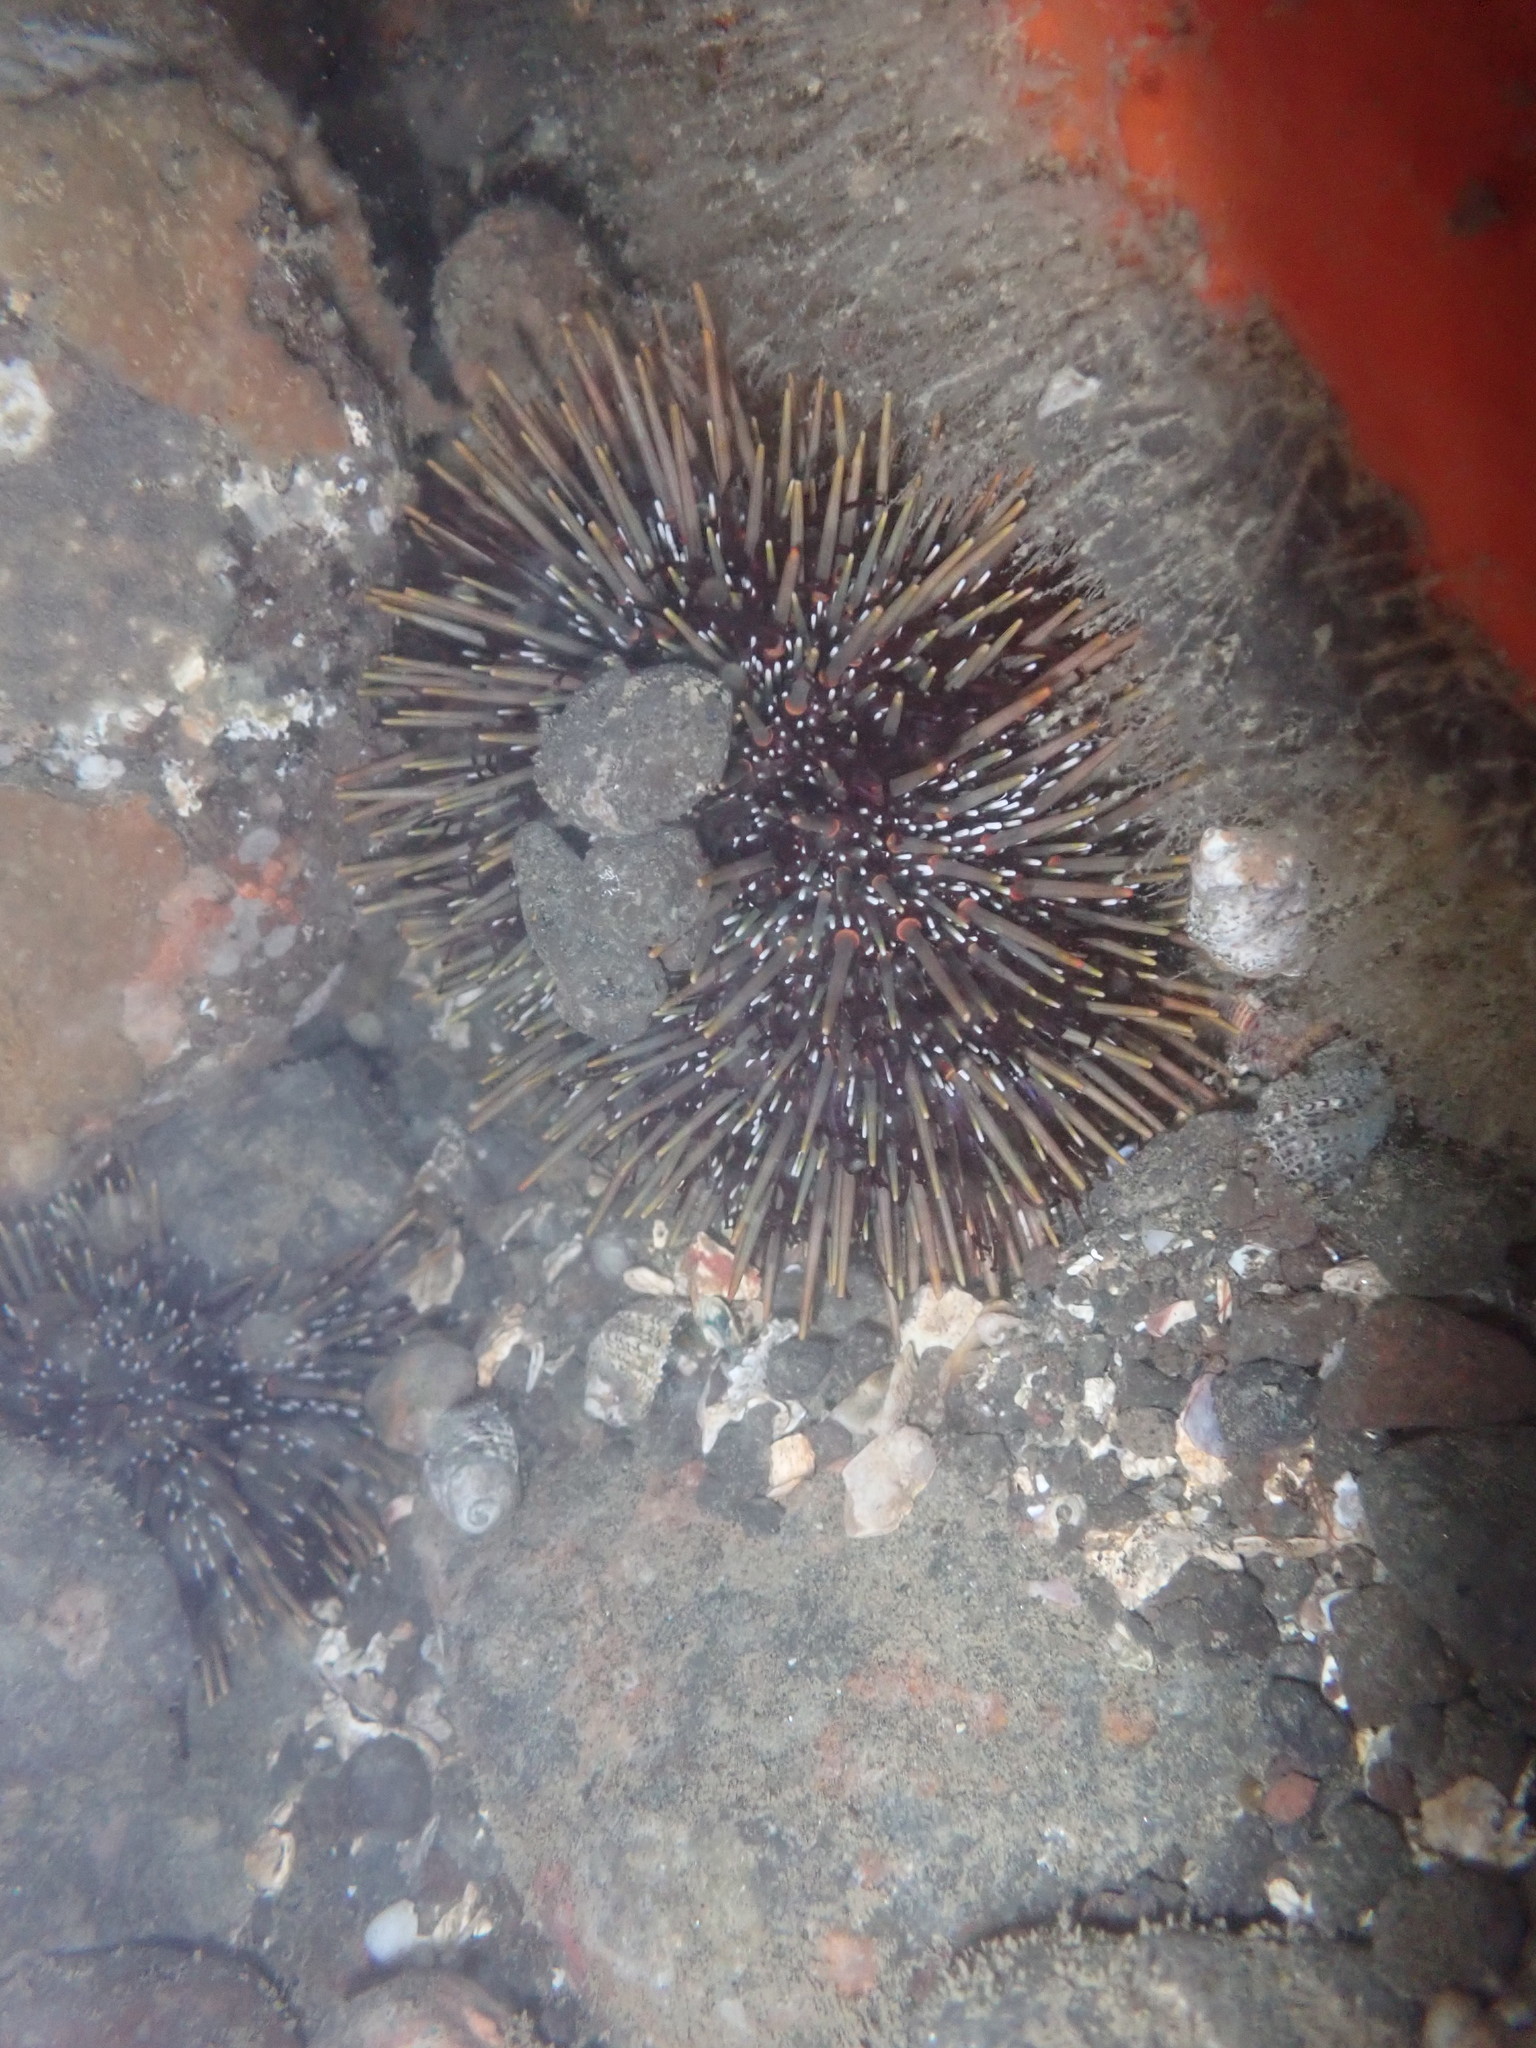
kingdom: Animalia
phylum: Echinodermata
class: Echinoidea
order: Camarodonta
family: Echinometridae
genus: Evechinus
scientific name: Evechinus chloroticus
